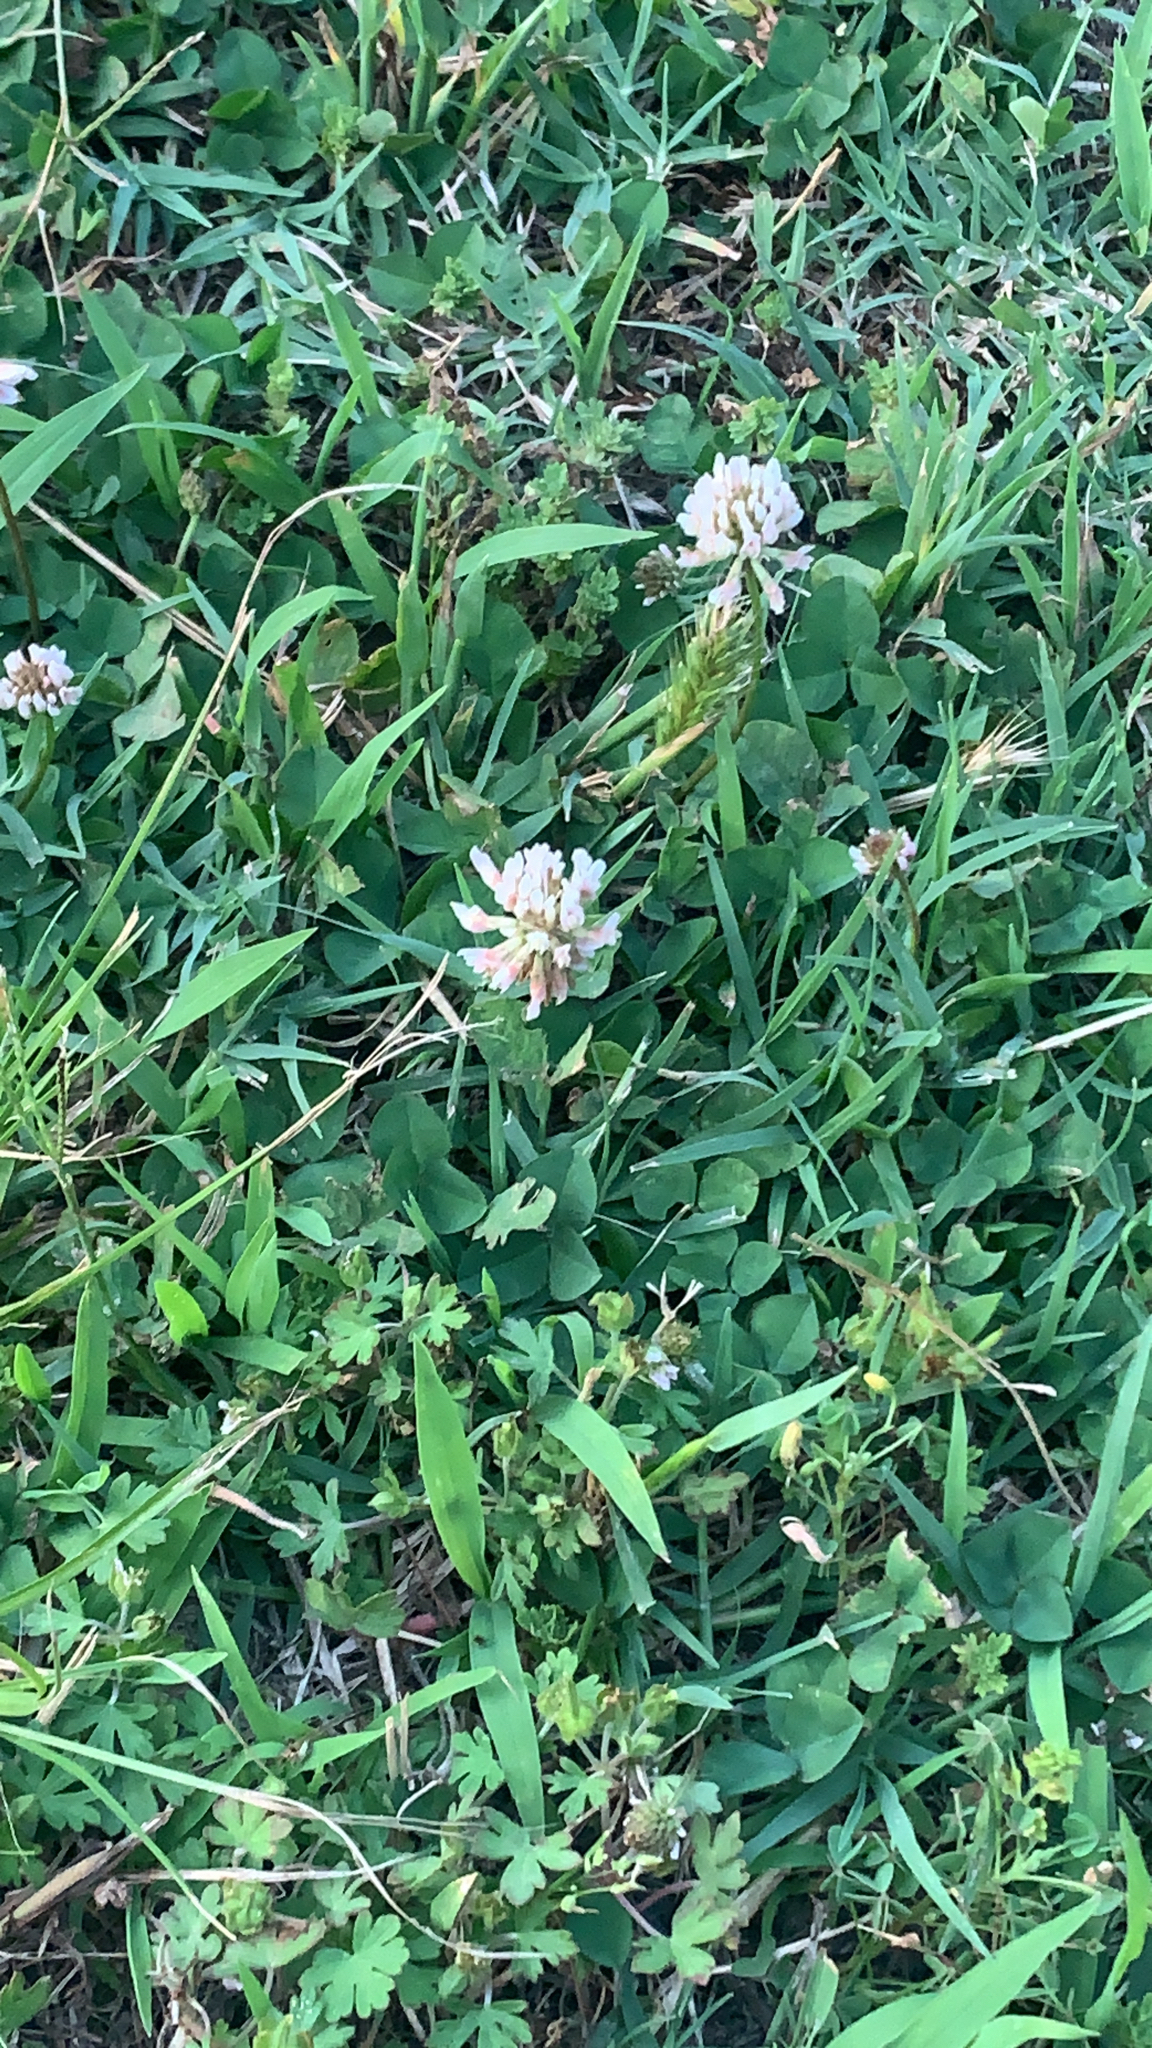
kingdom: Plantae
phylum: Tracheophyta
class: Magnoliopsida
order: Fabales
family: Fabaceae
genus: Trifolium
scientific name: Trifolium repens
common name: White clover
